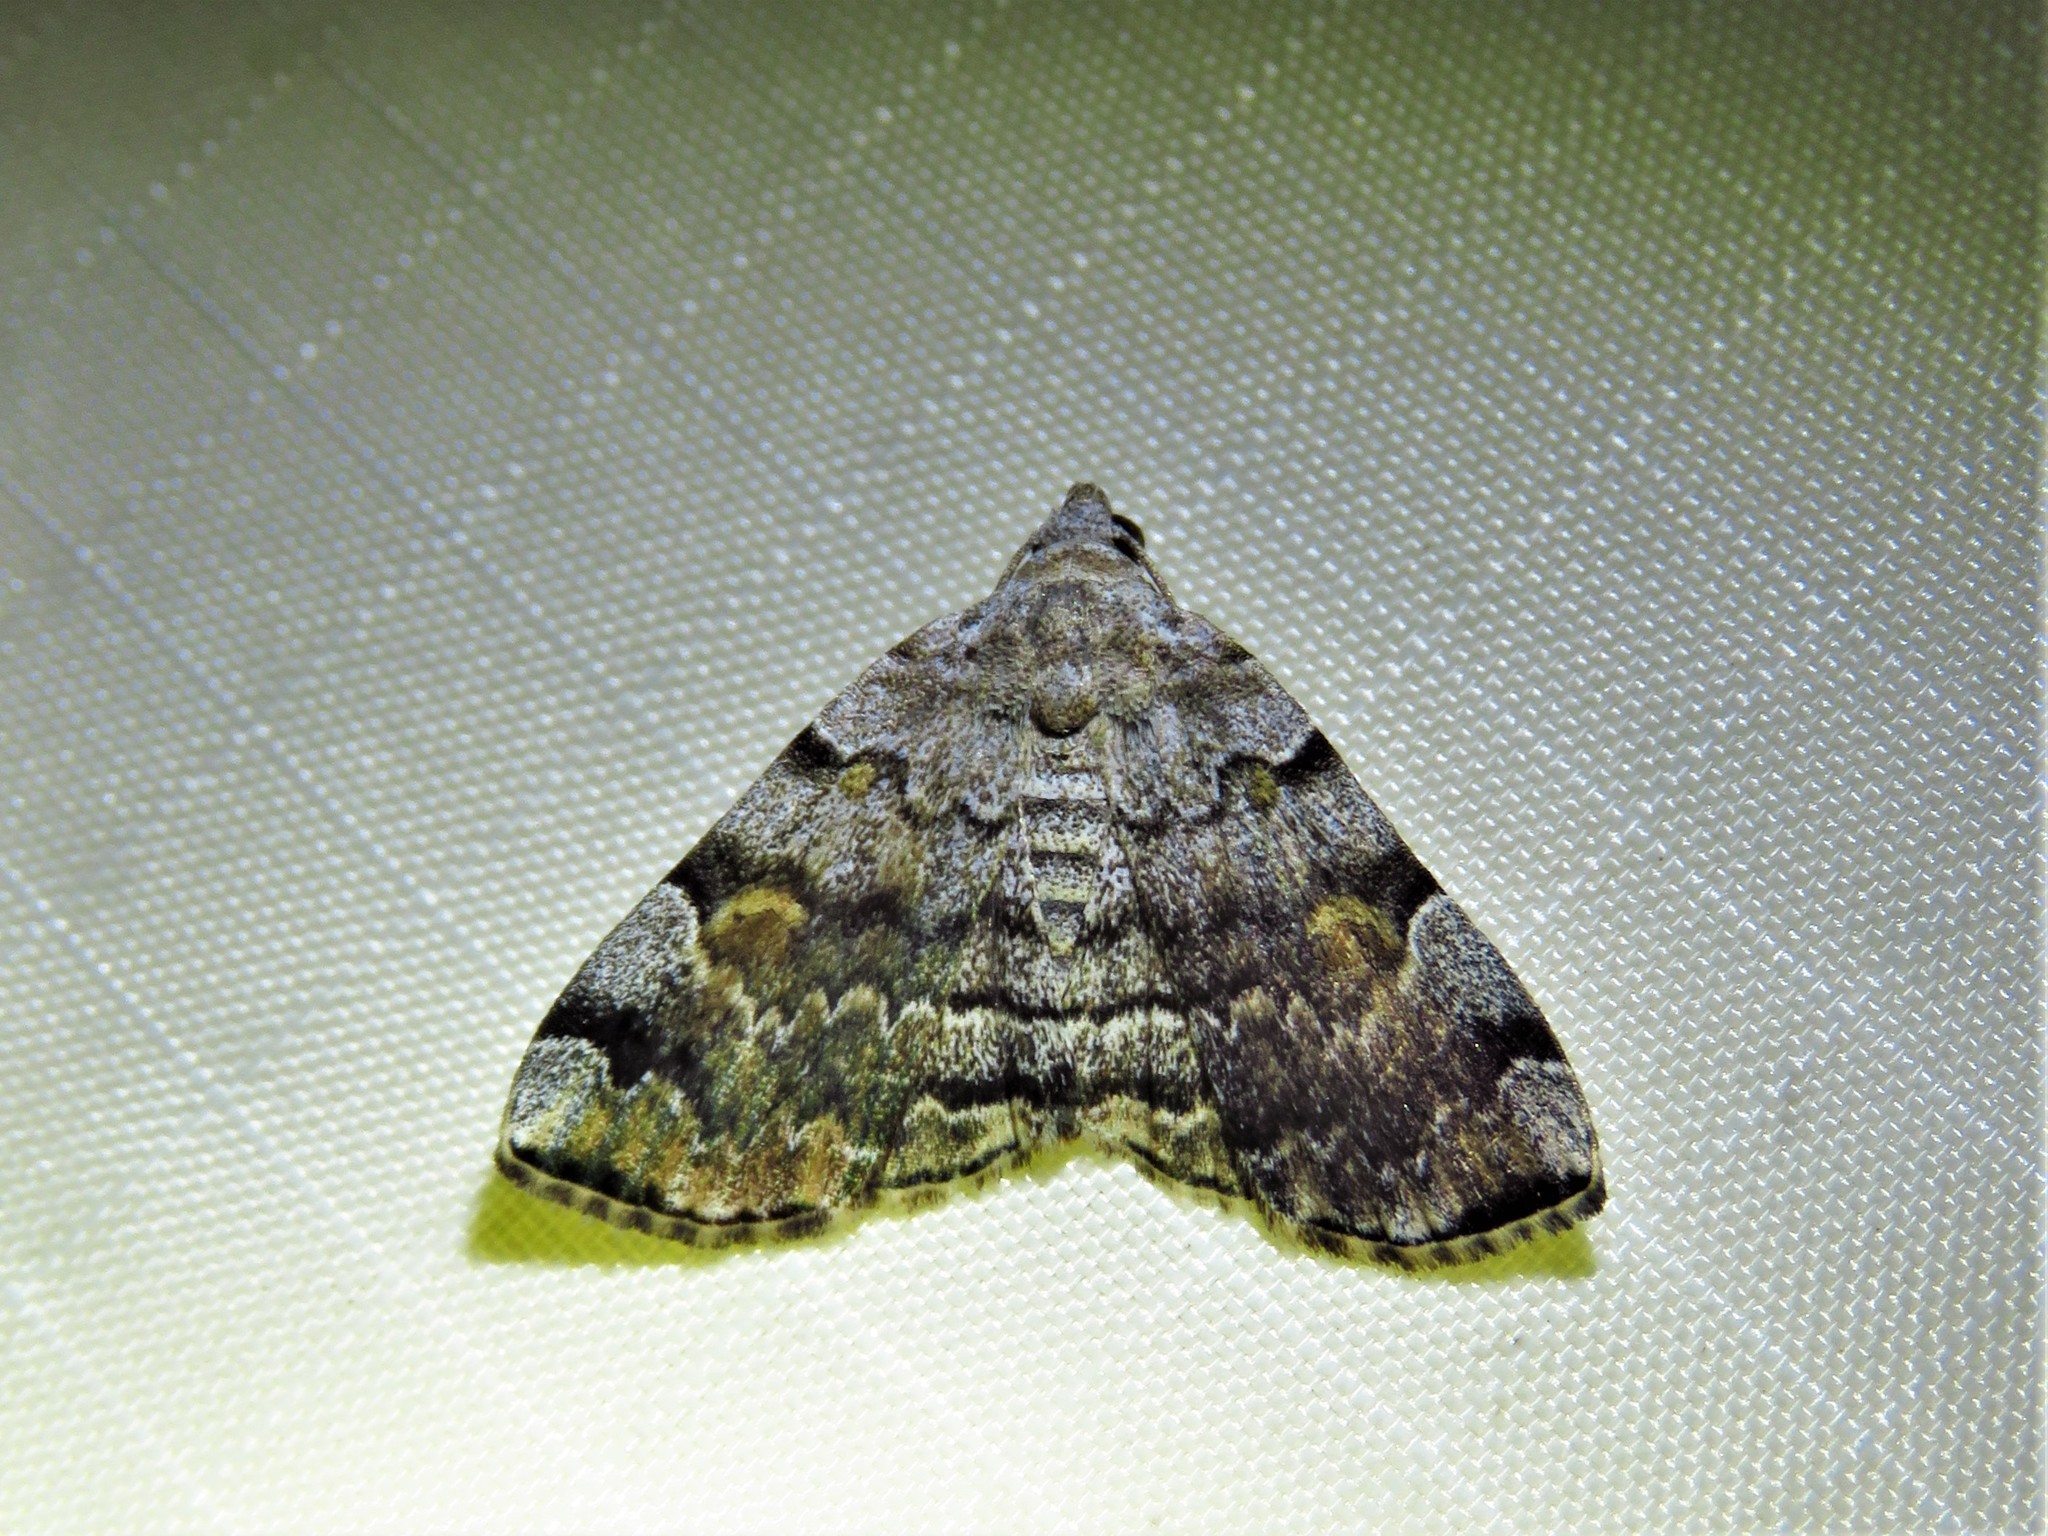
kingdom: Animalia
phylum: Arthropoda
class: Insecta
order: Lepidoptera
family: Erebidae
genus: Idia
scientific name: Idia americalis
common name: American idia moth
